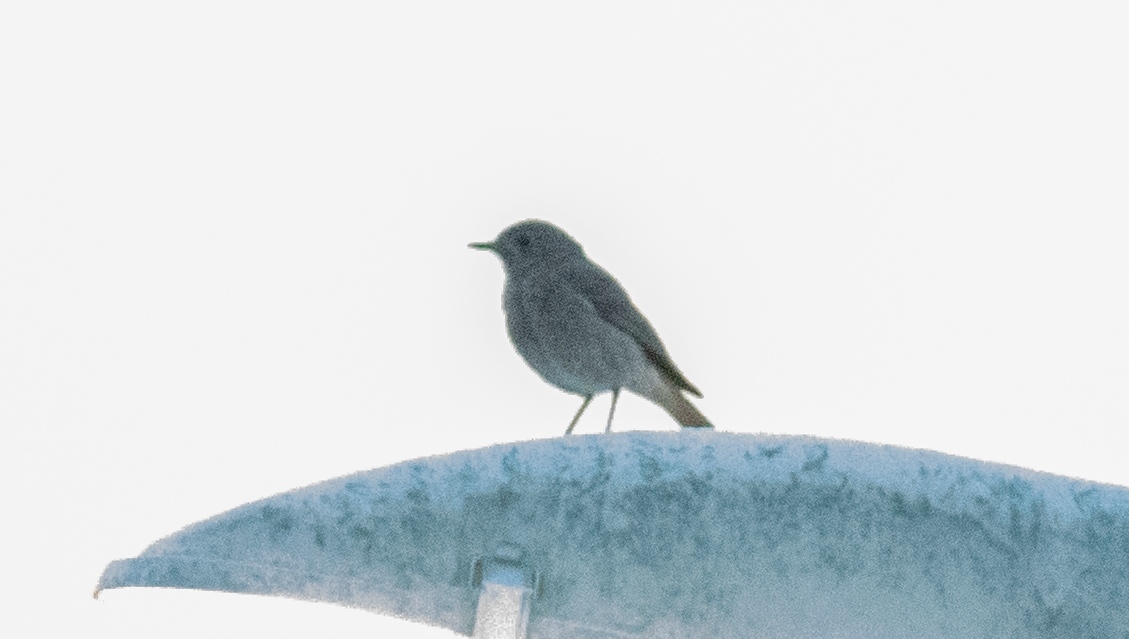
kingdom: Animalia
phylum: Chordata
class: Aves
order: Passeriformes
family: Muscicapidae
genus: Phoenicurus
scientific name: Phoenicurus ochruros
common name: Black redstart
